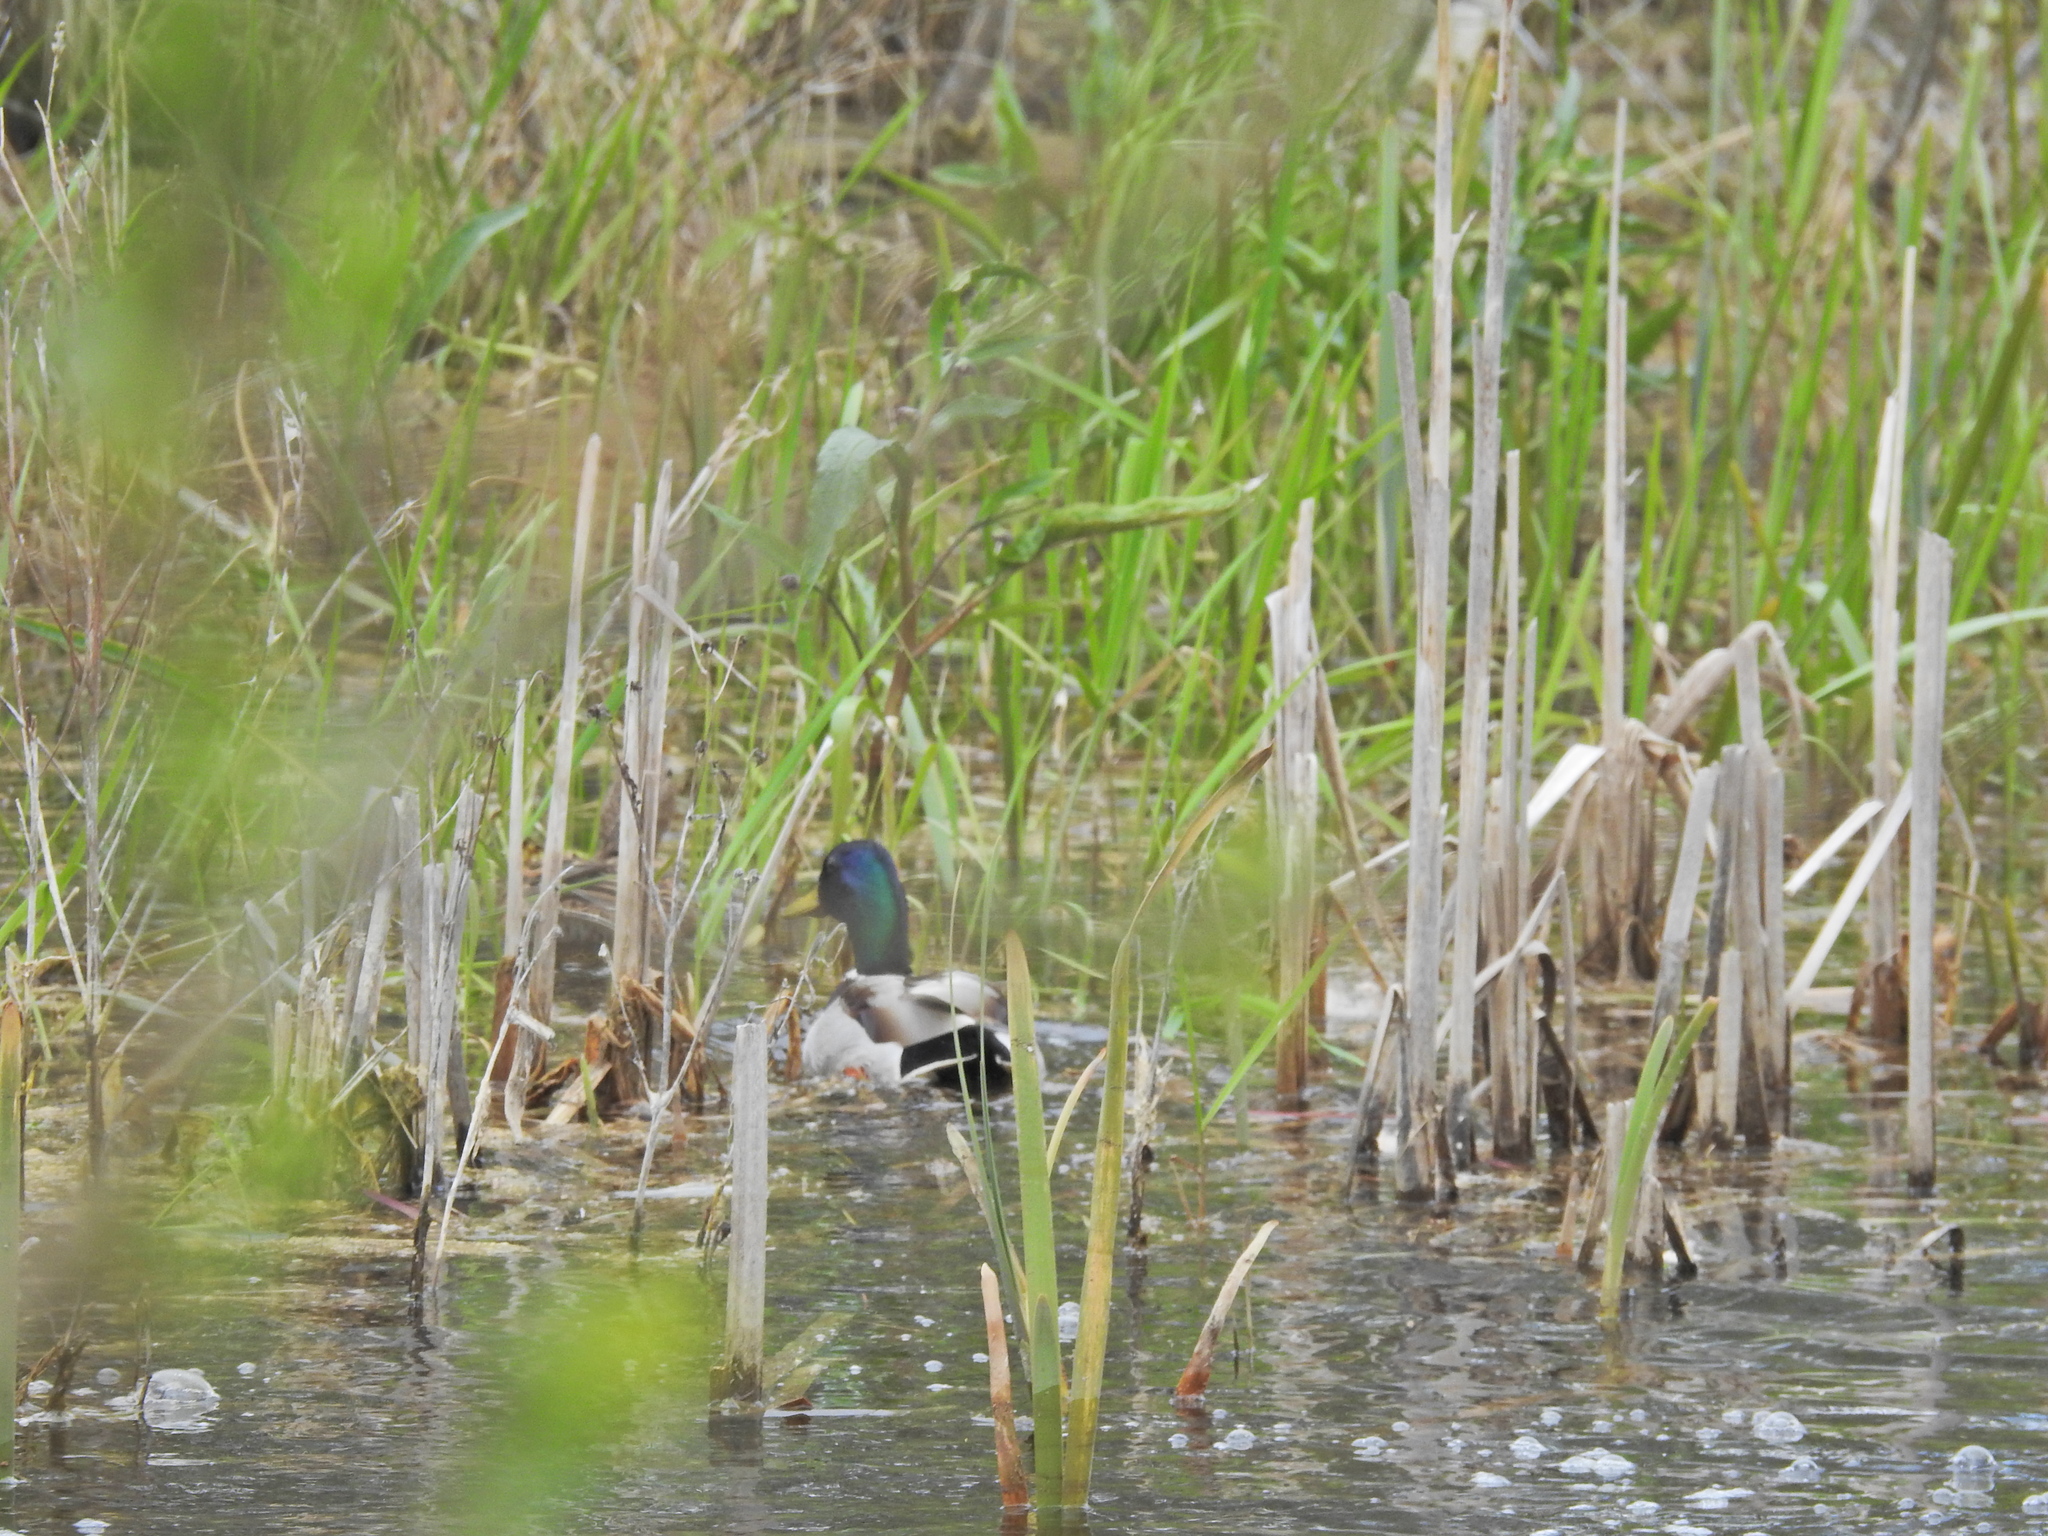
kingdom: Animalia
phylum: Chordata
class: Aves
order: Anseriformes
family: Anatidae
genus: Anas
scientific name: Anas platyrhynchos
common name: Mallard
